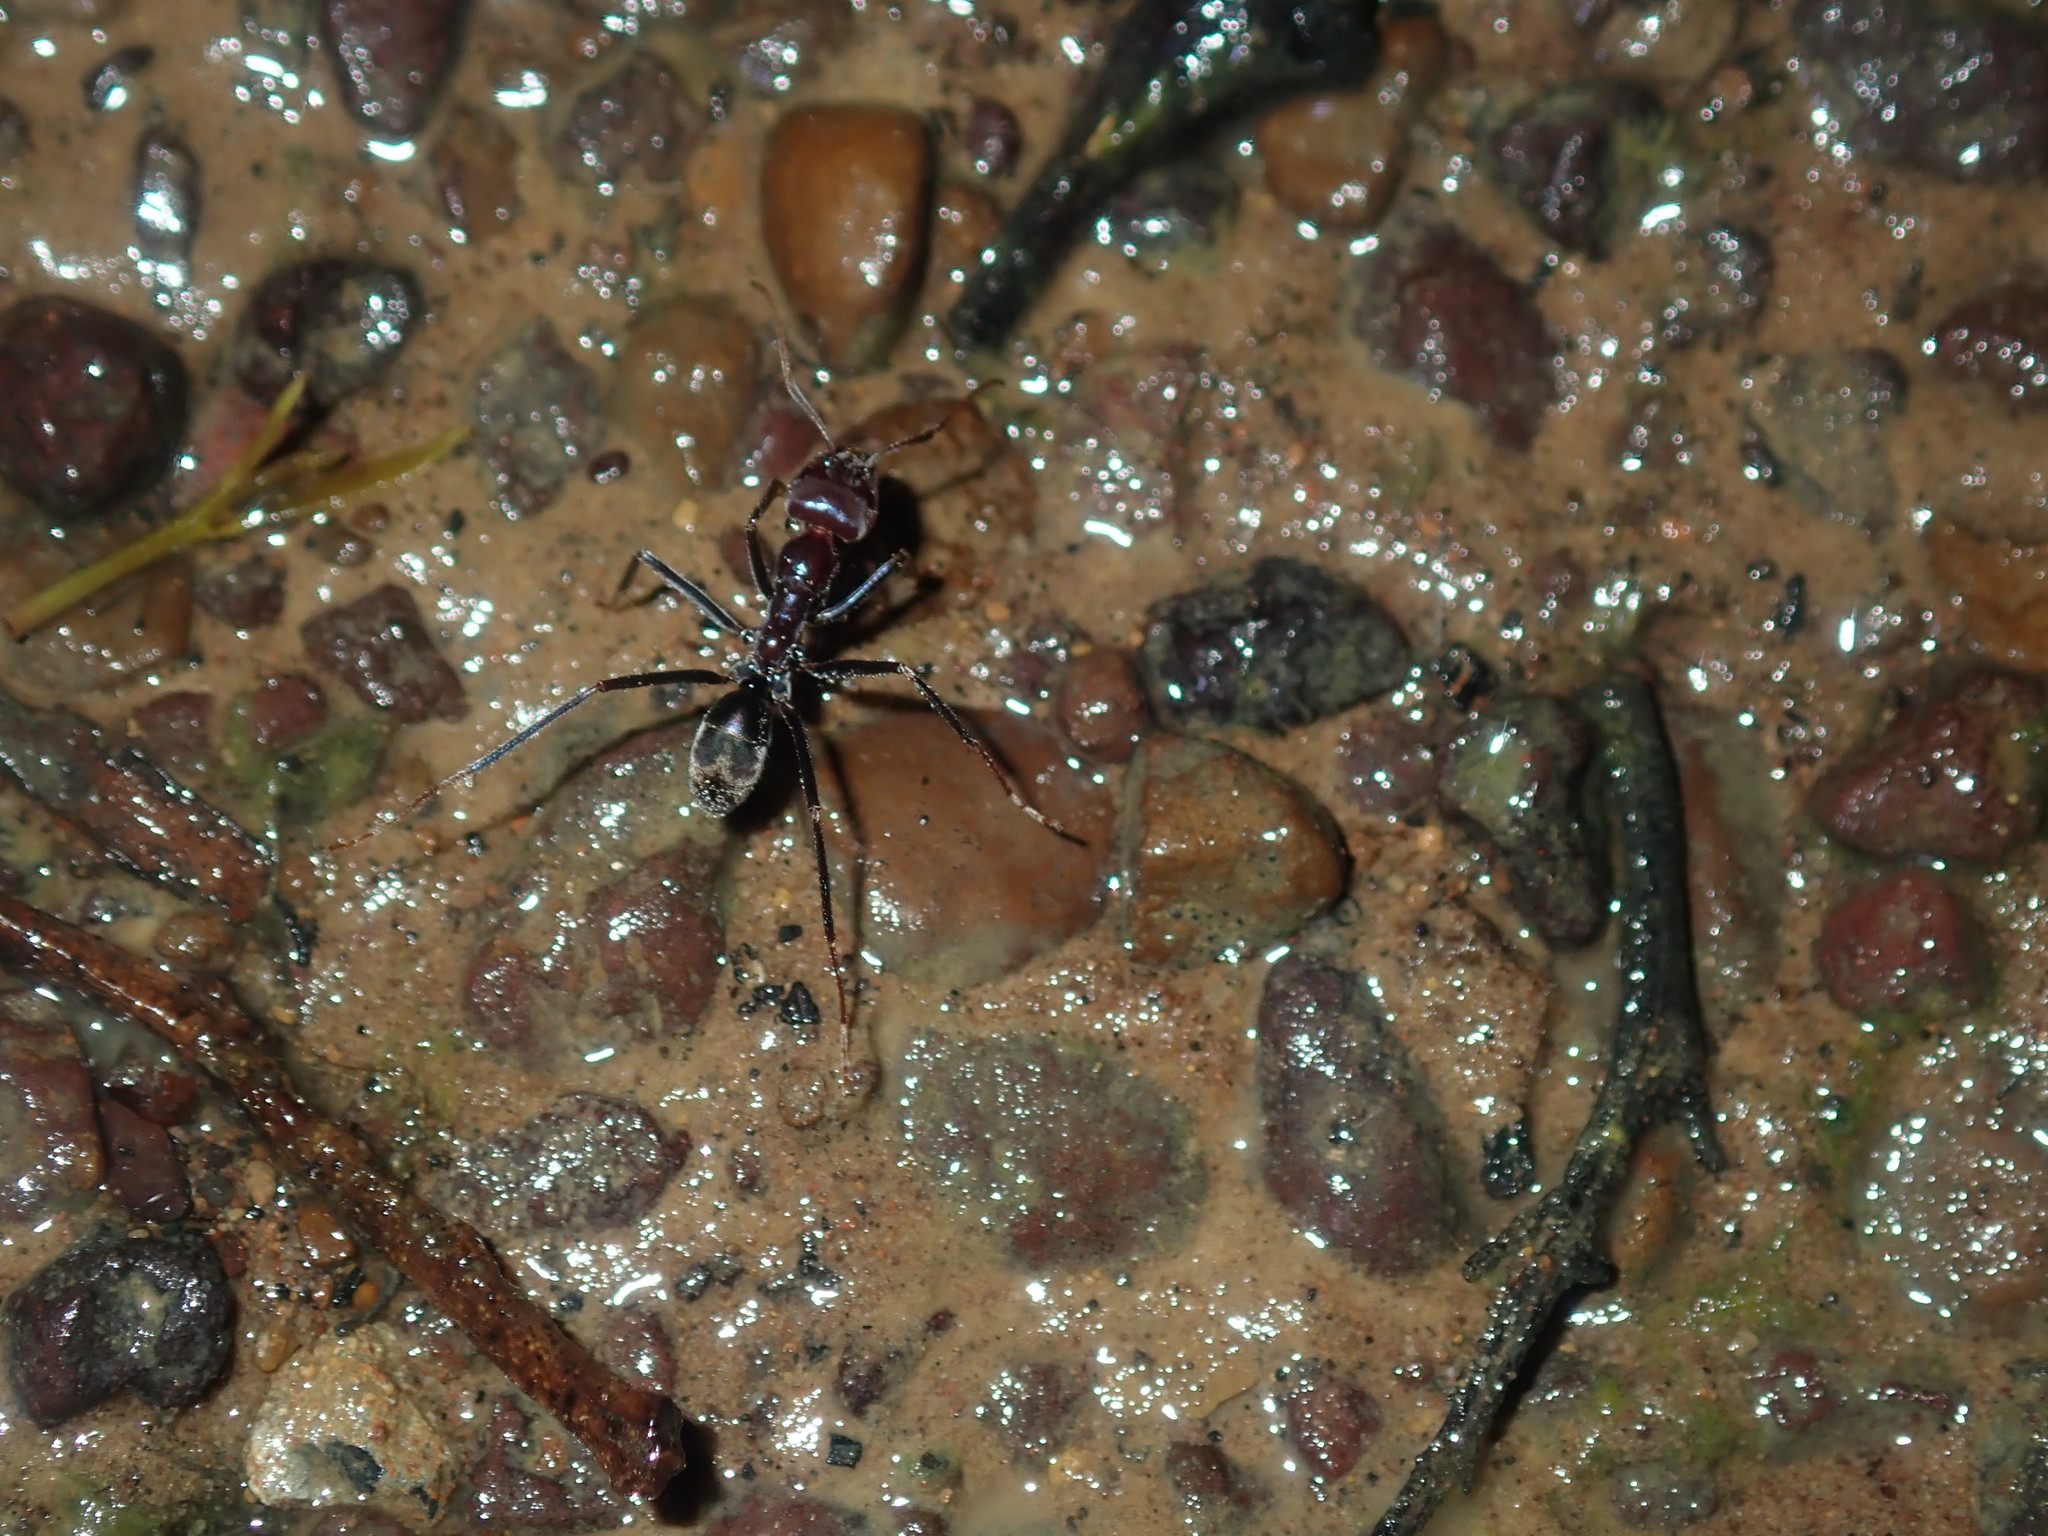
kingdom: Animalia
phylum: Arthropoda
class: Insecta
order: Hymenoptera
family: Formicidae
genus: Iridomyrmex
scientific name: Iridomyrmex purpureus
